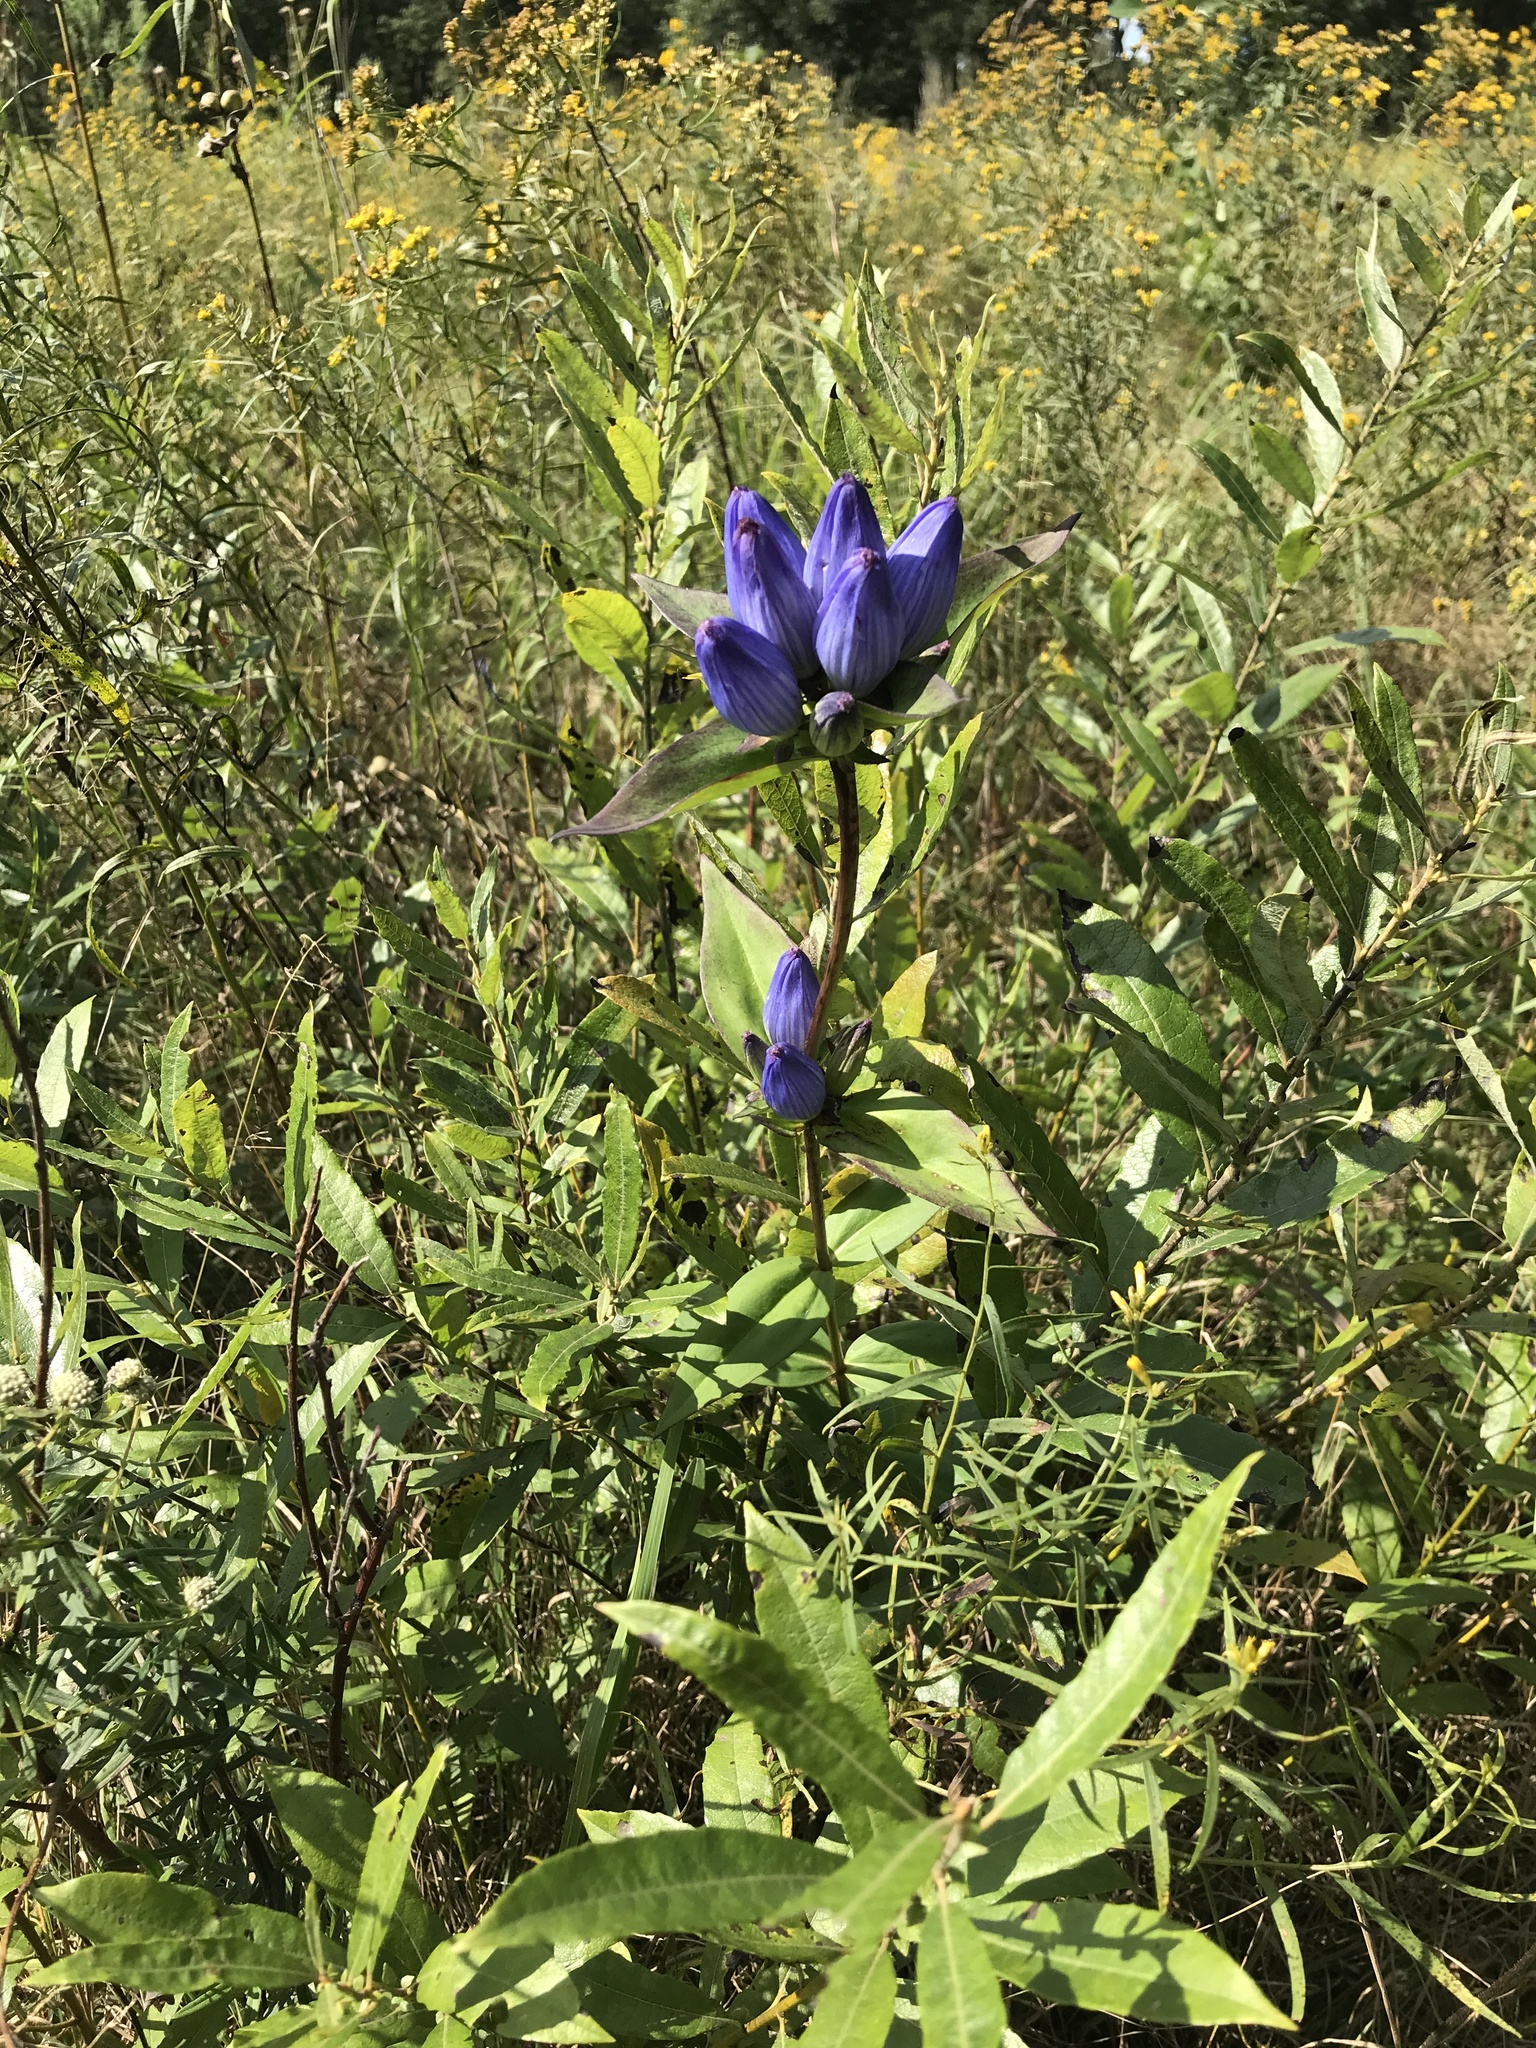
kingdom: Plantae
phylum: Tracheophyta
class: Magnoliopsida
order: Gentianales
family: Gentianaceae
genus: Gentiana
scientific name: Gentiana andrewsii
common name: Bottle gentian
